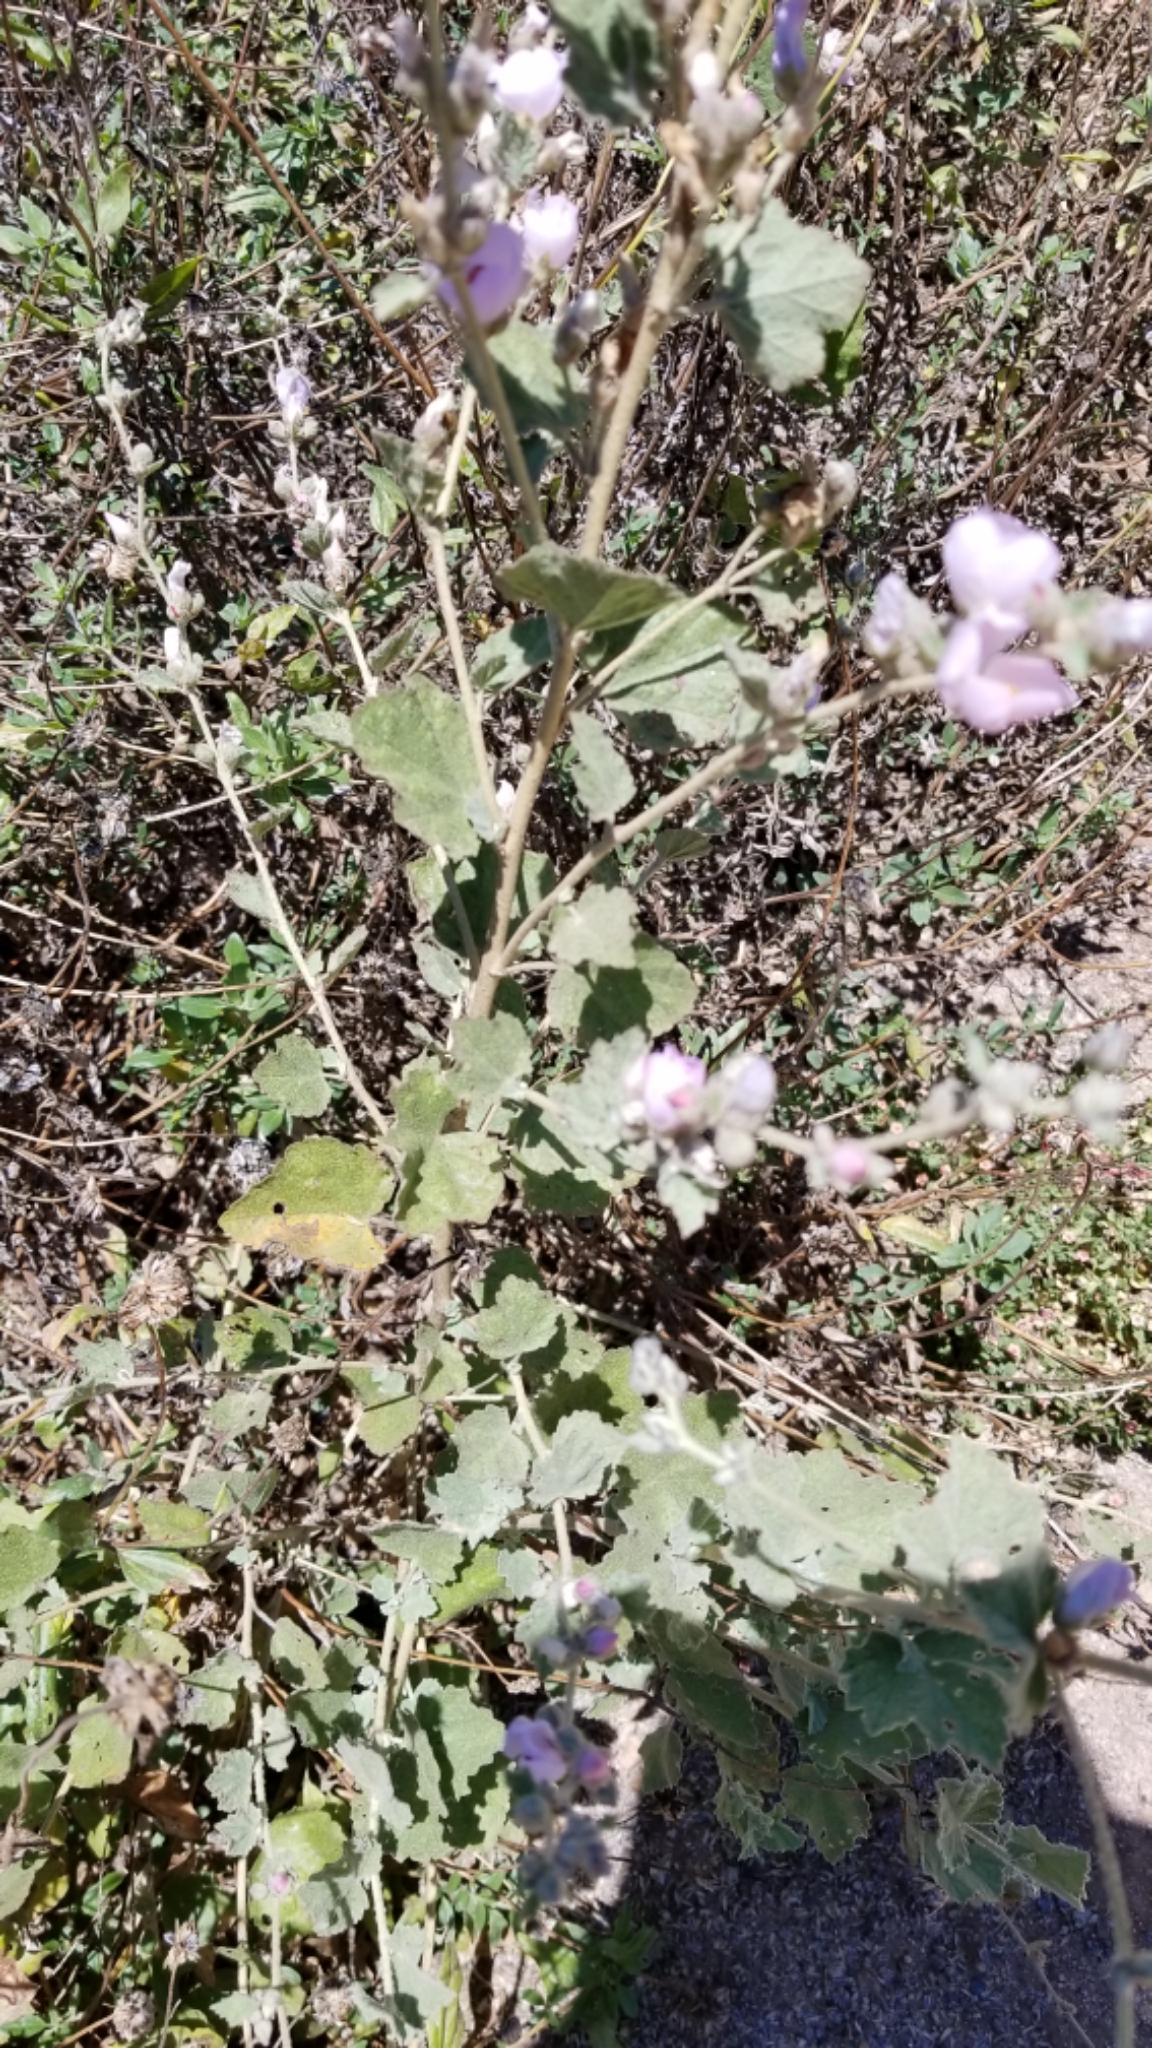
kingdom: Plantae
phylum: Tracheophyta
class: Magnoliopsida
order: Malvales
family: Malvaceae
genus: Malacothamnus
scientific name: Malacothamnus fasciculatus
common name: Sant cruz island bush-mallow
